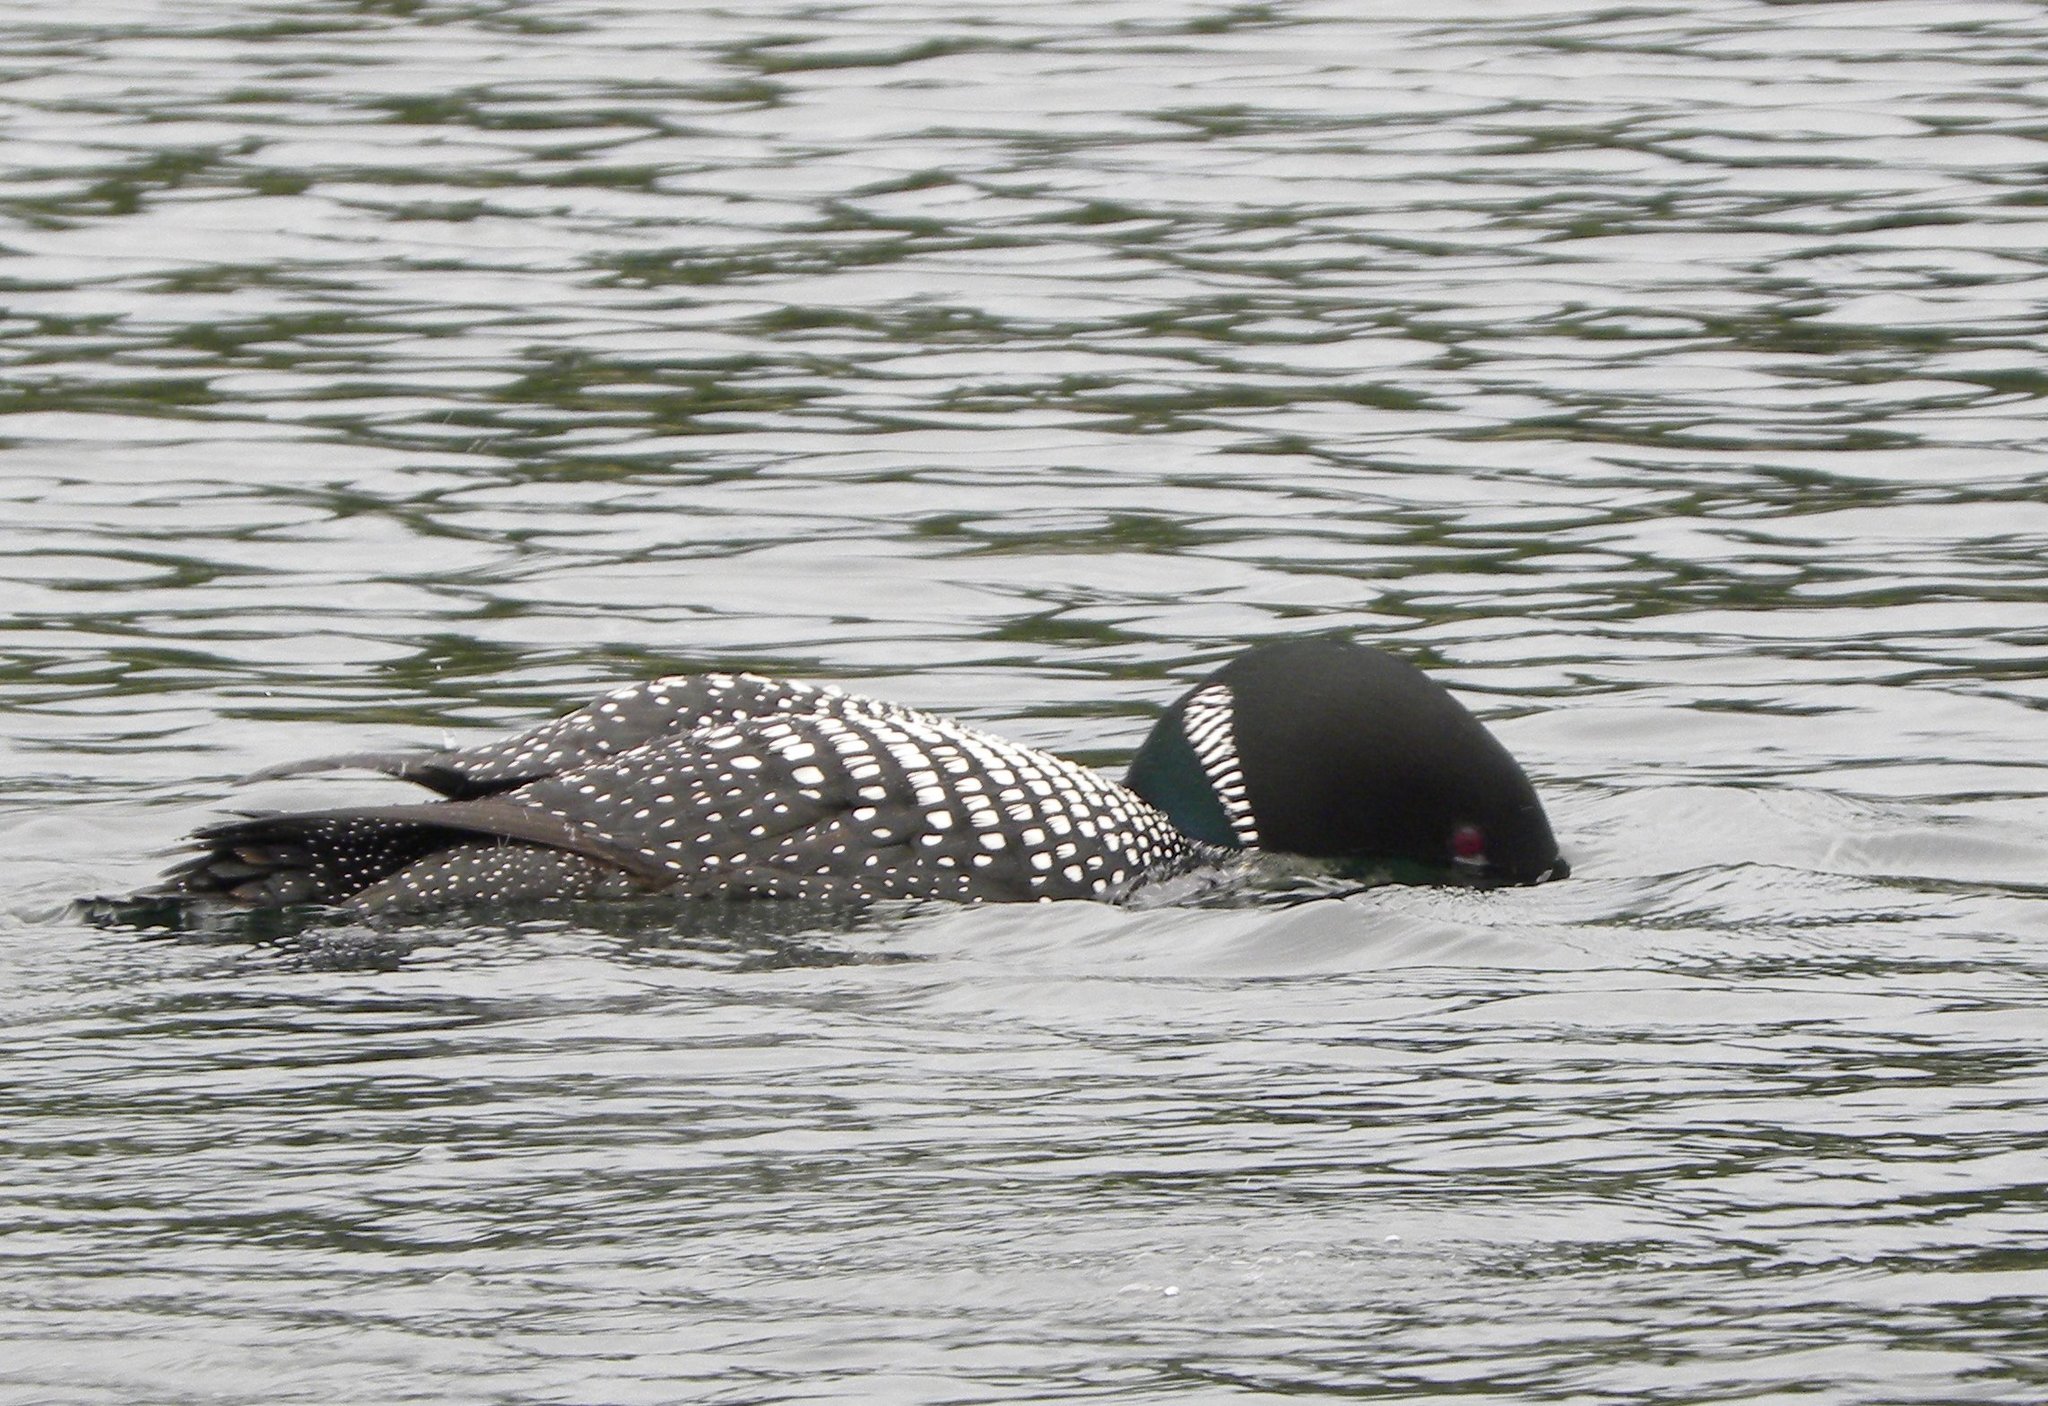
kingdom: Animalia
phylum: Chordata
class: Aves
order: Gaviiformes
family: Gaviidae
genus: Gavia
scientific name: Gavia immer
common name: Common loon
